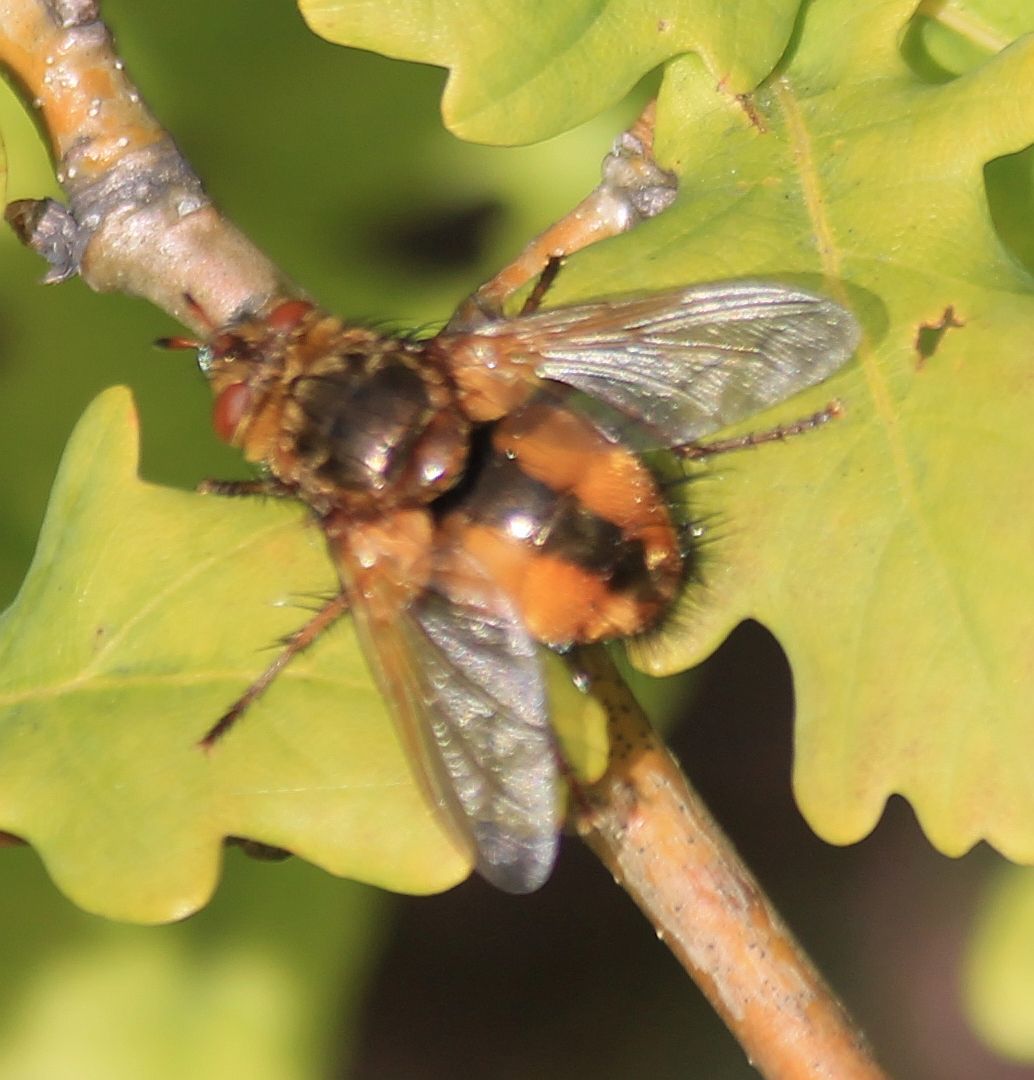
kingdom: Animalia
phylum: Arthropoda
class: Insecta
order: Diptera
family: Tachinidae
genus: Tachina
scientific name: Tachina fera
